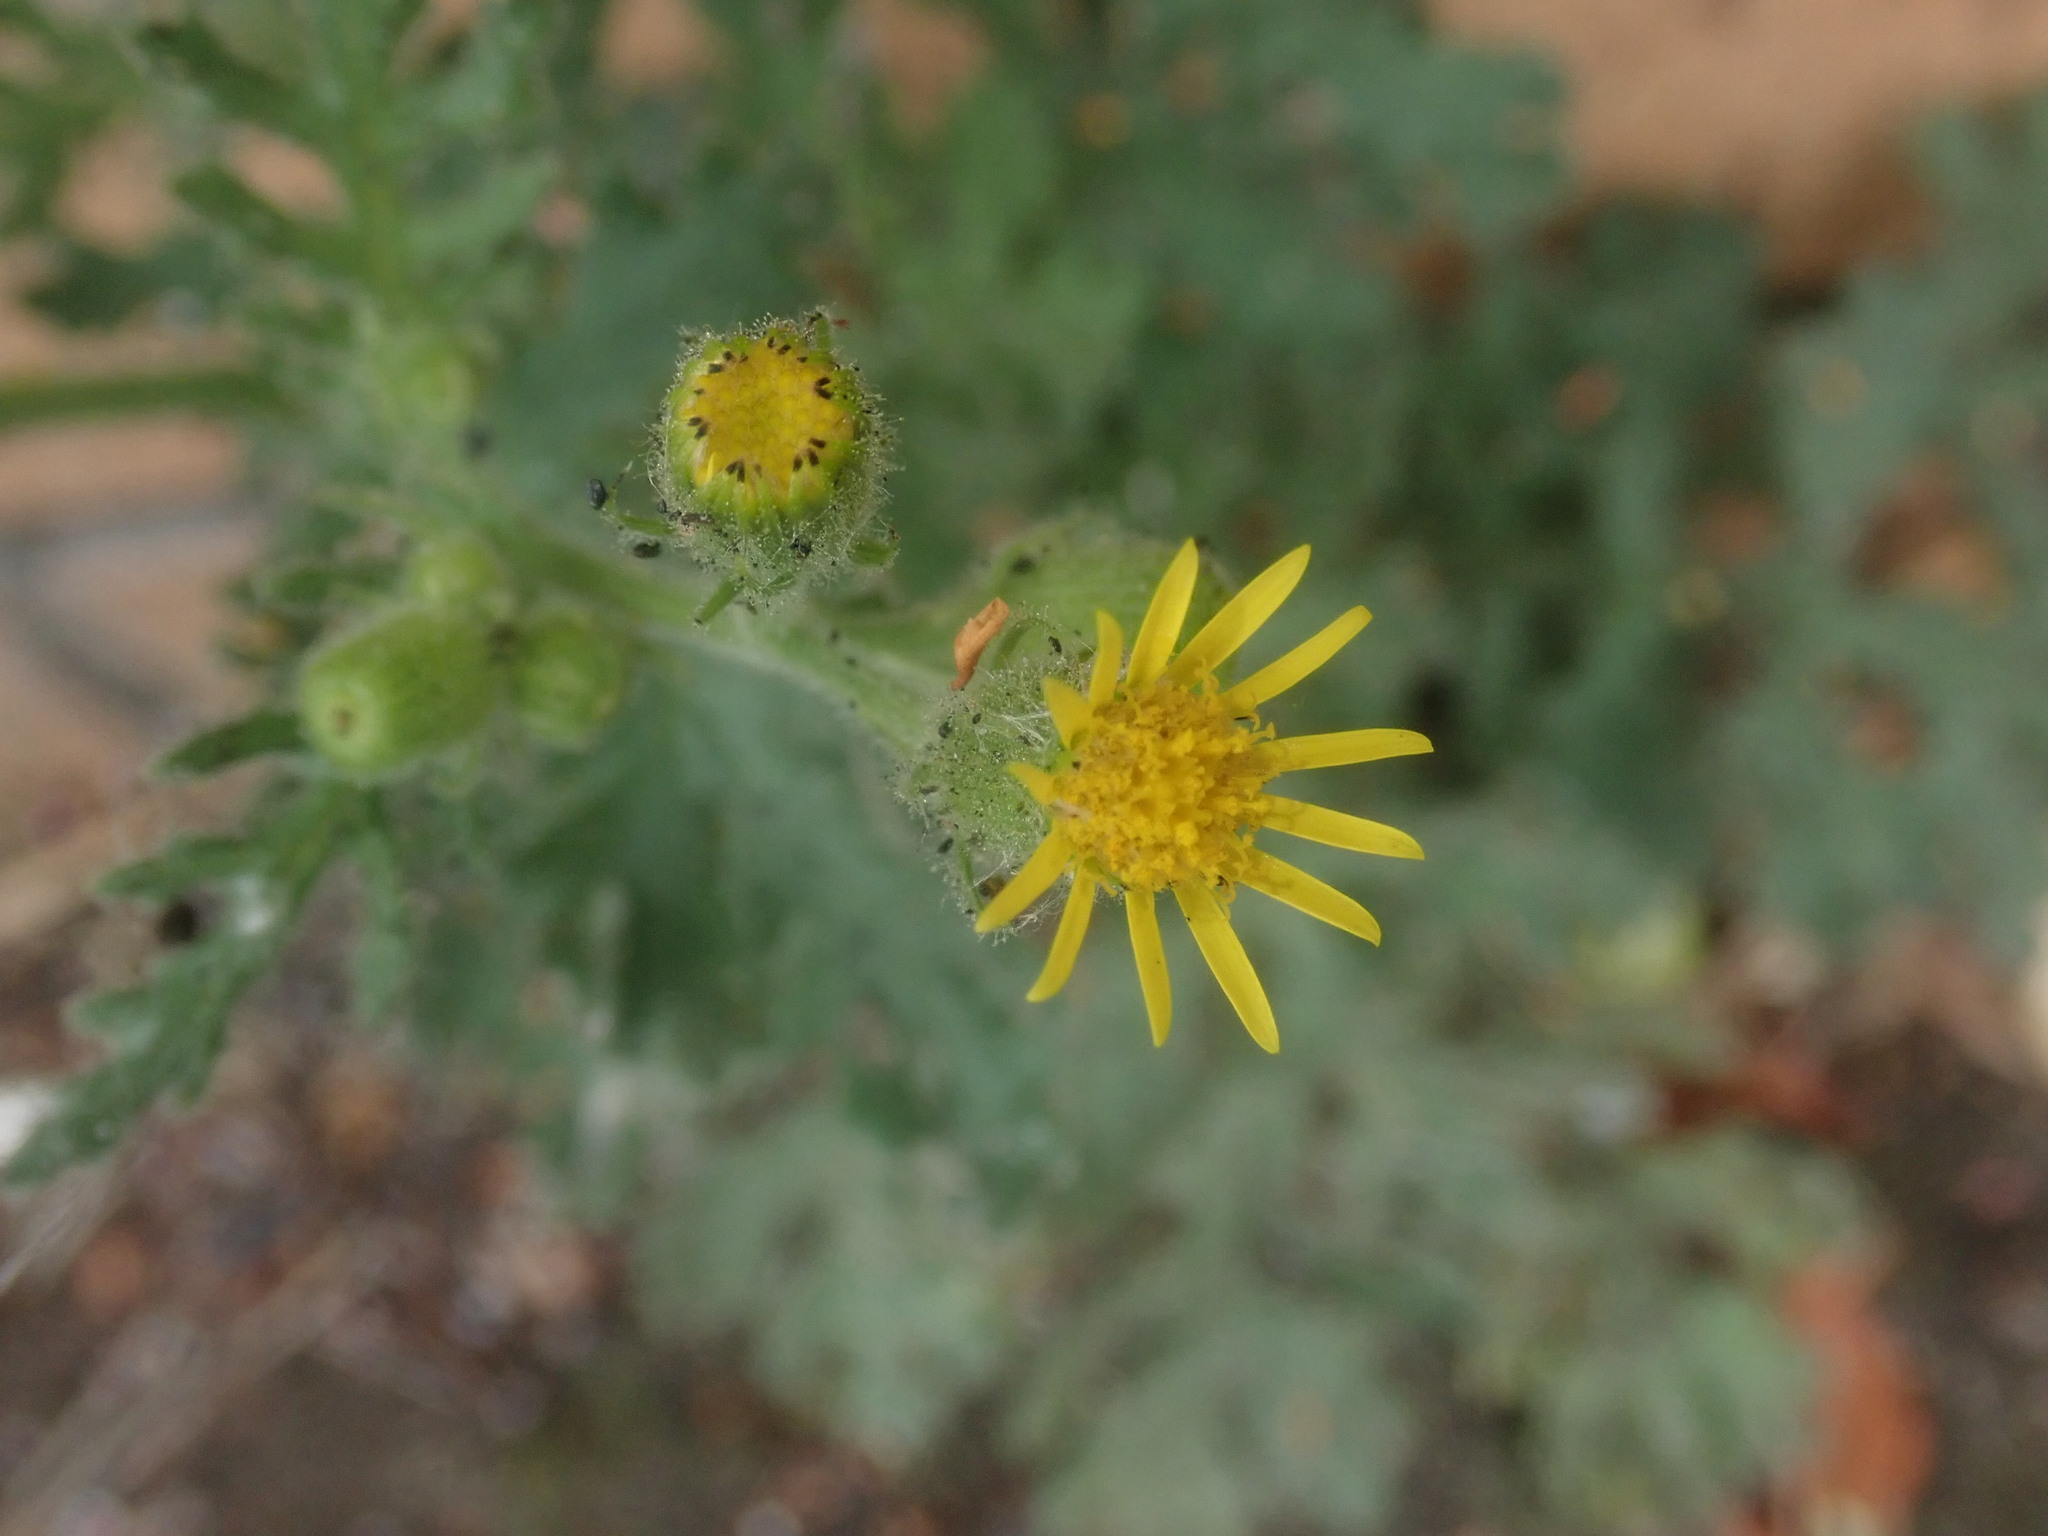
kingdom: Plantae
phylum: Tracheophyta
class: Magnoliopsida
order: Asterales
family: Asteraceae
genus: Senecio
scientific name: Senecio viscosus
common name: Sticky groundsel
